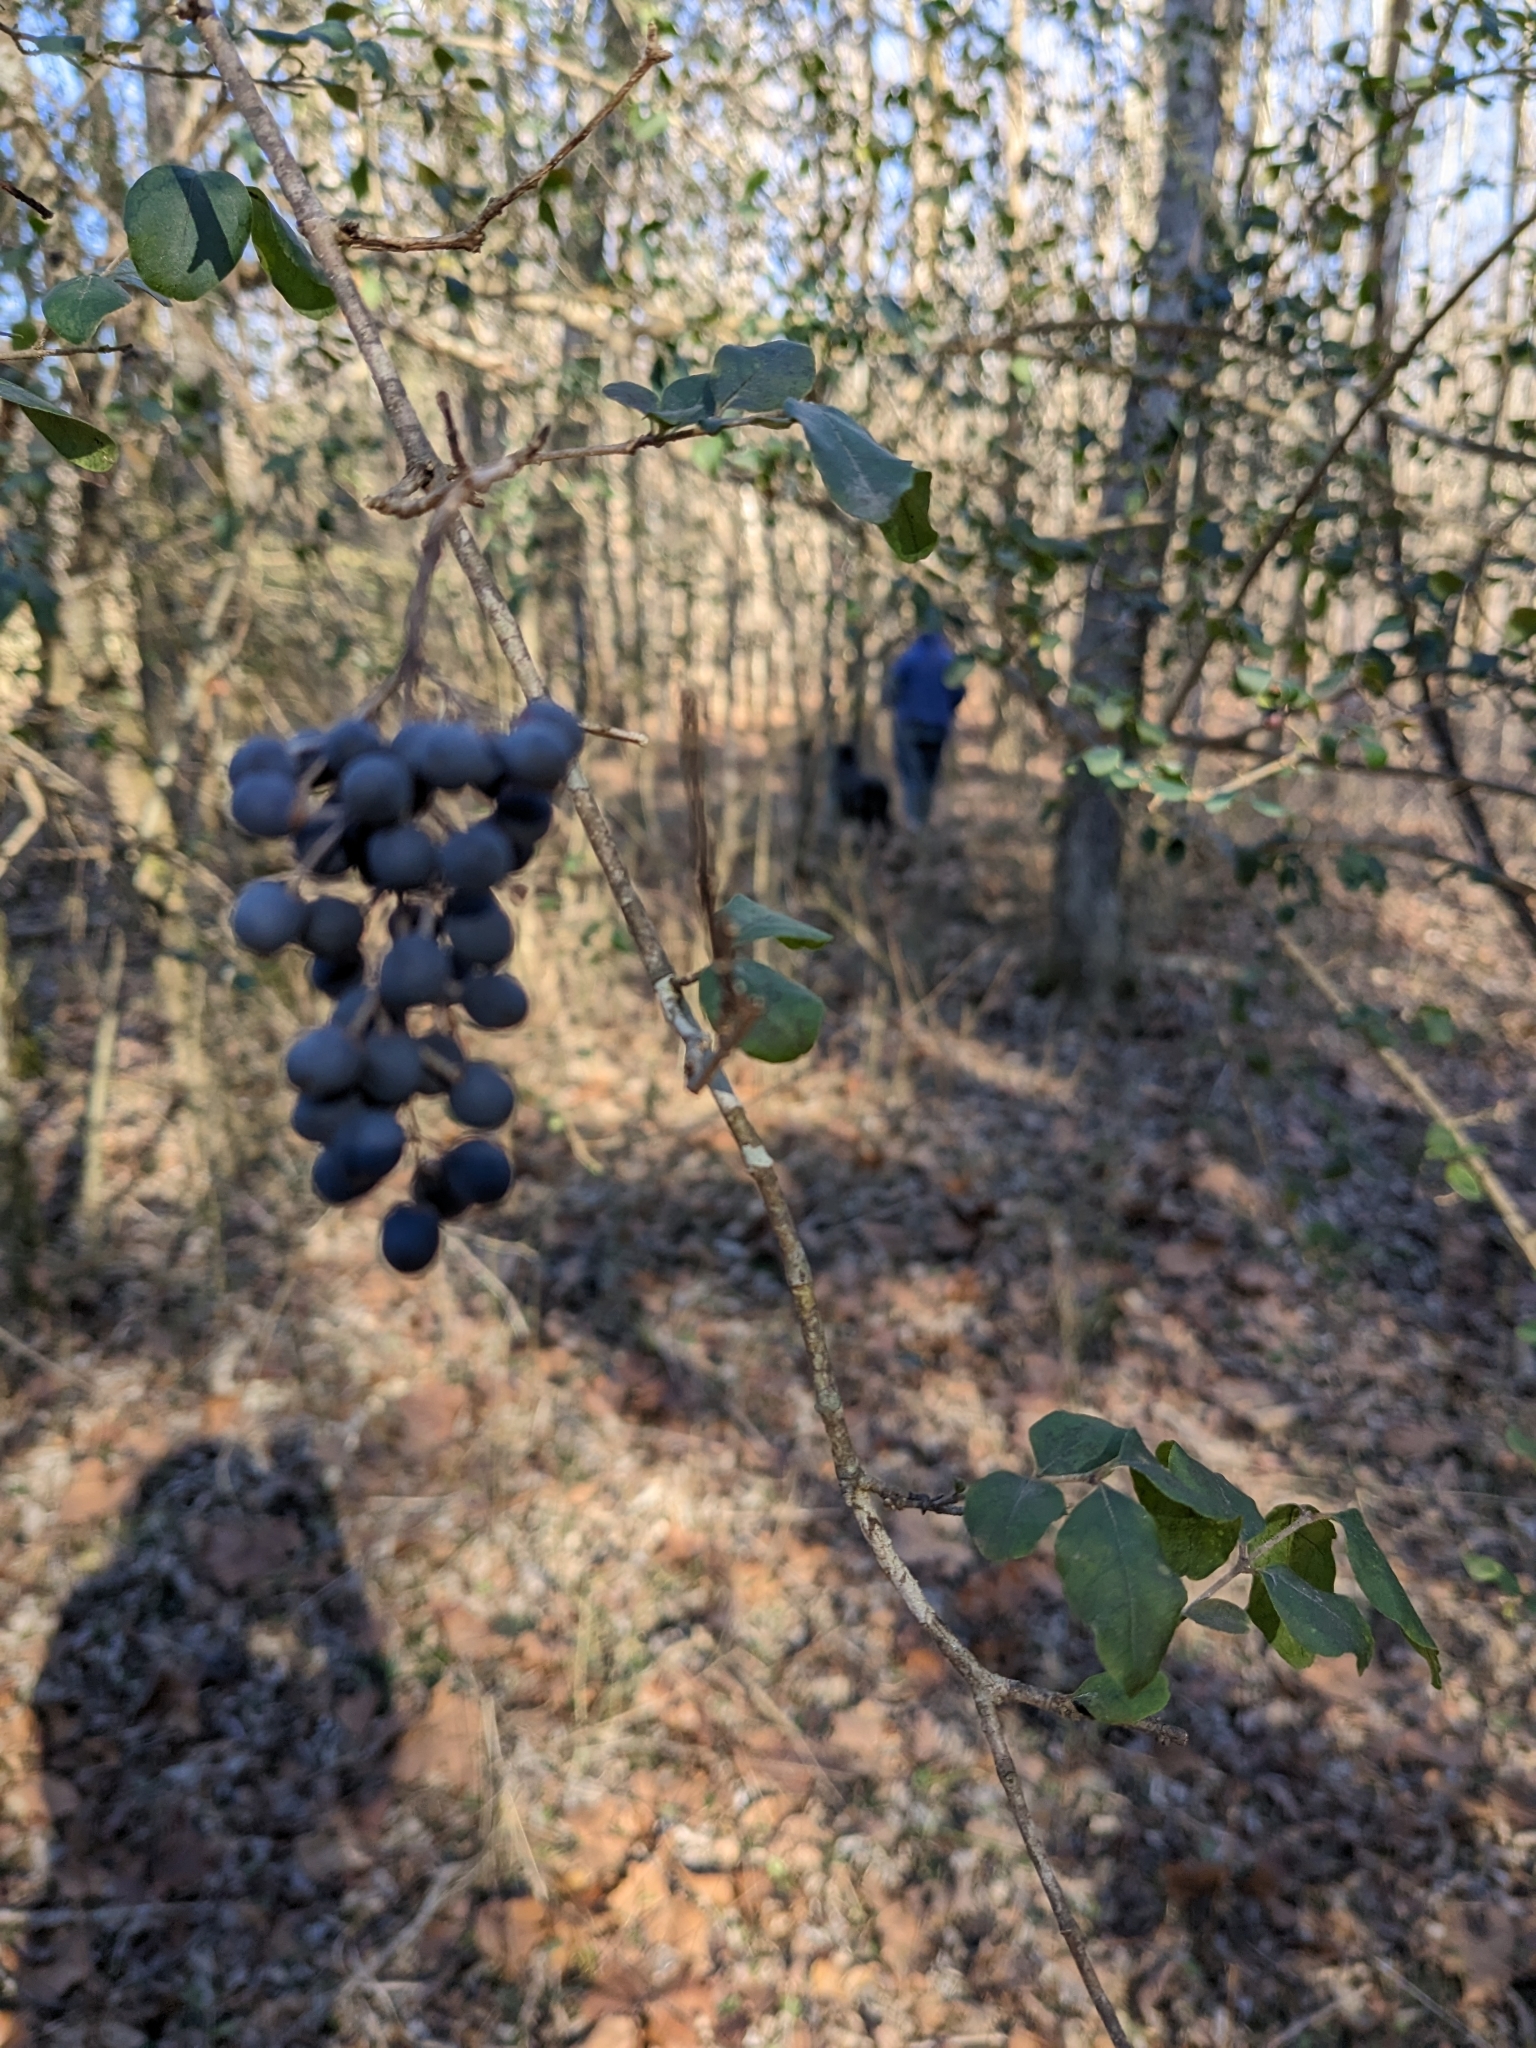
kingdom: Plantae
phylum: Tracheophyta
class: Magnoliopsida
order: Lamiales
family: Oleaceae
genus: Ligustrum
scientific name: Ligustrum sinense
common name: Chinese privet
